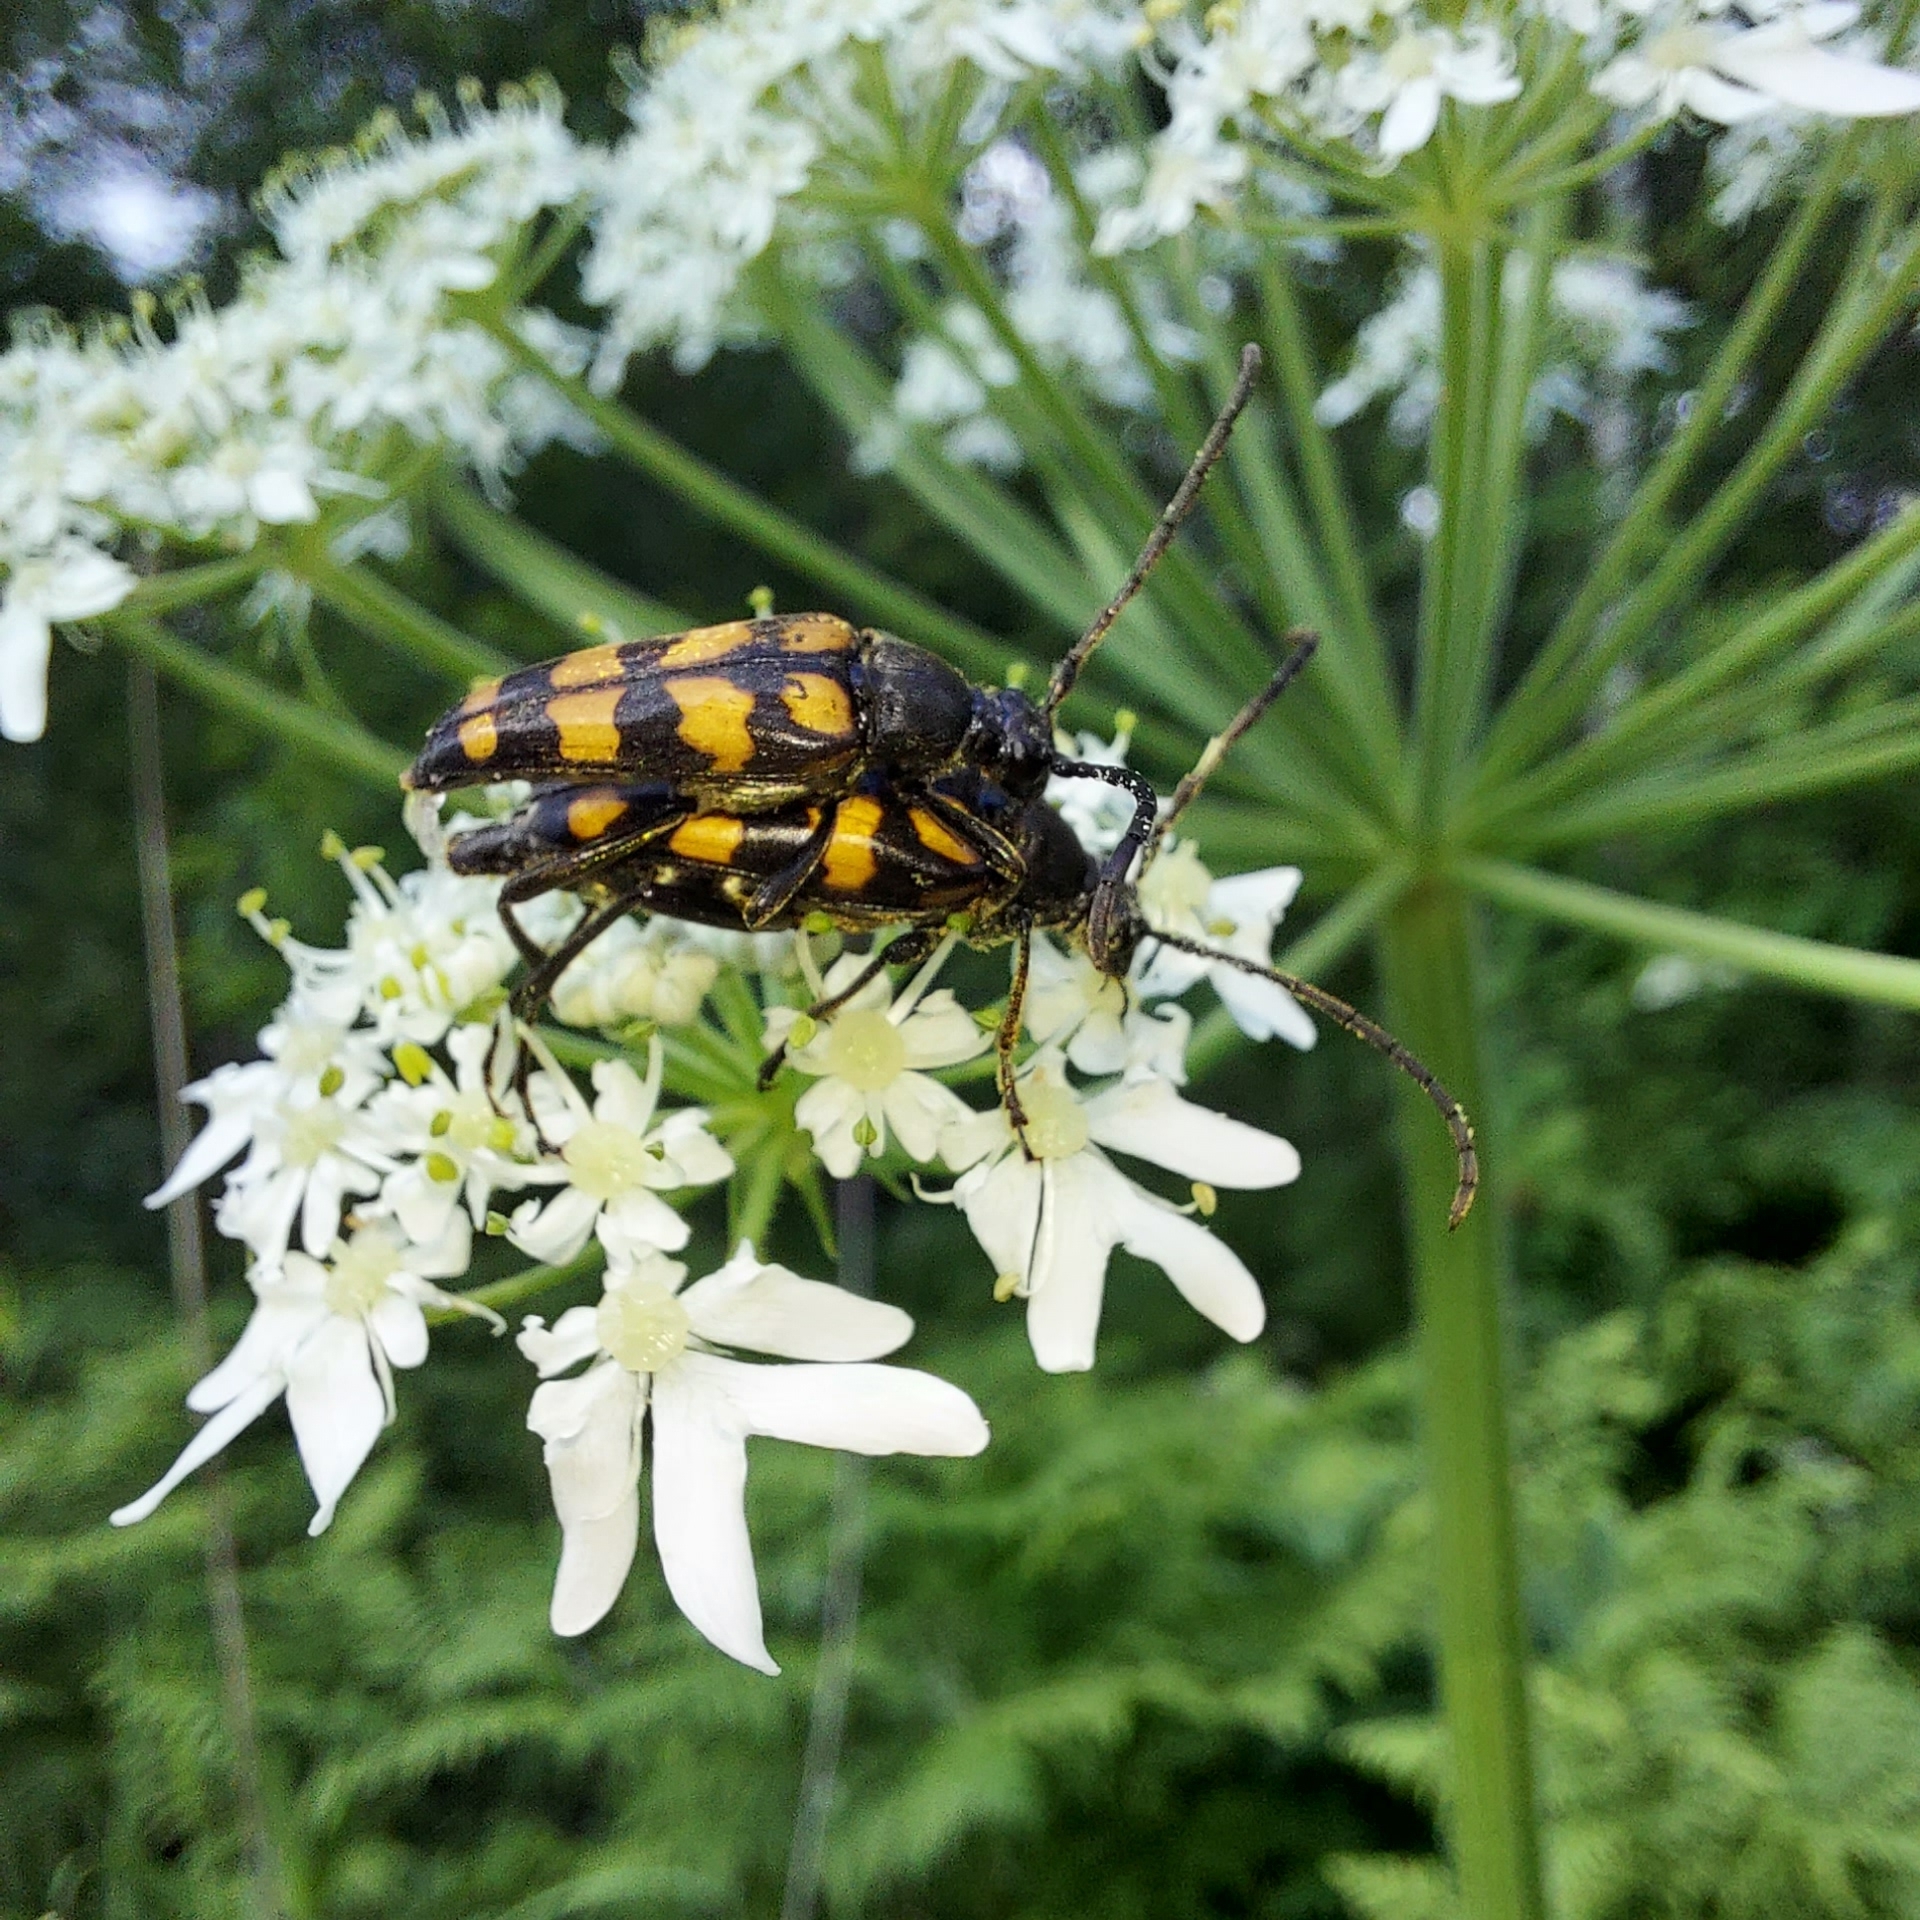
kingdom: Animalia
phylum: Arthropoda
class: Insecta
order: Coleoptera
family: Cerambycidae
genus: Leptura
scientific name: Leptura quadrifasciata
